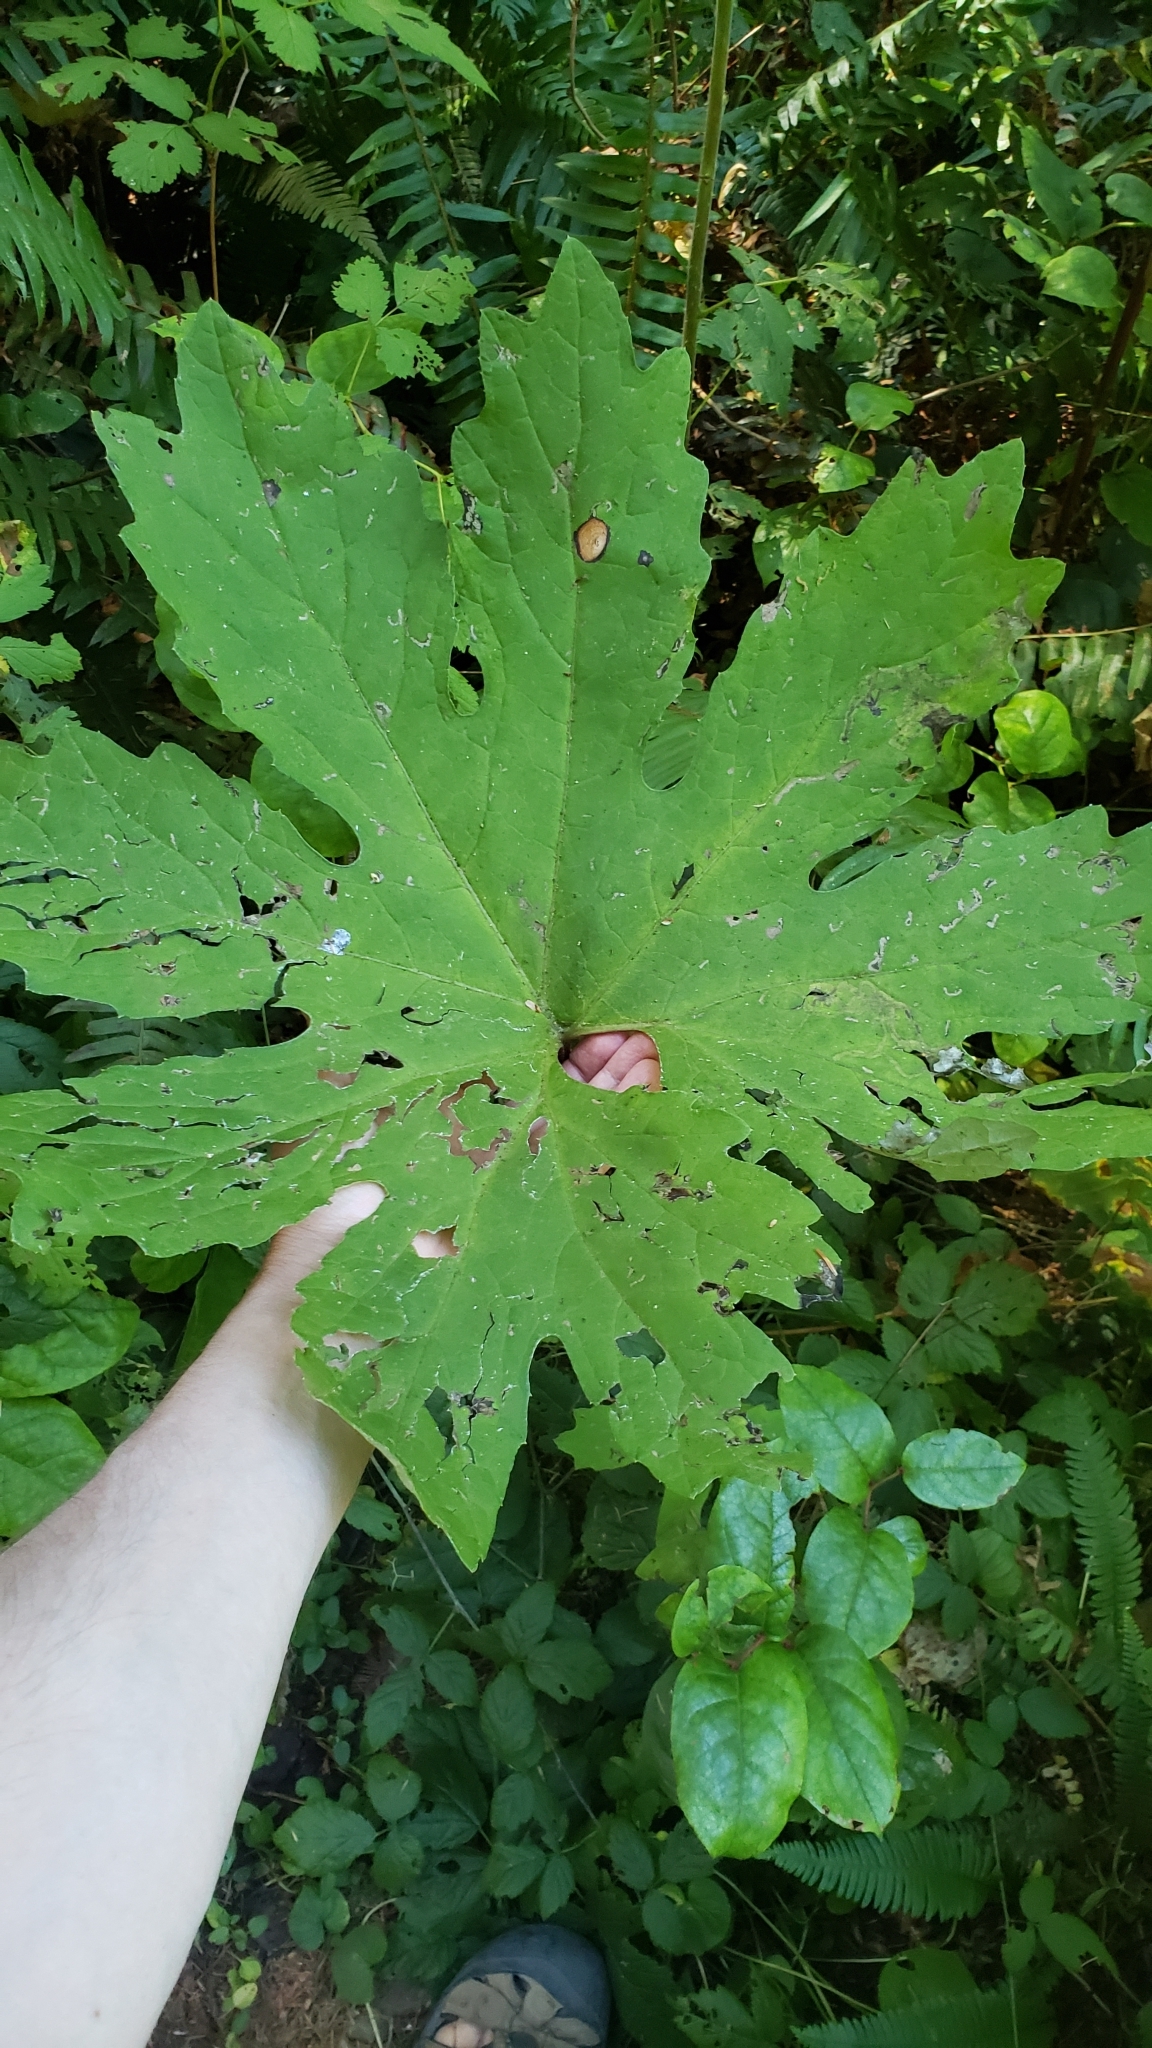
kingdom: Plantae
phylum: Tracheophyta
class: Magnoliopsida
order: Asterales
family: Asteraceae
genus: Petasites
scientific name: Petasites frigidus
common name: Arctic butterbur
